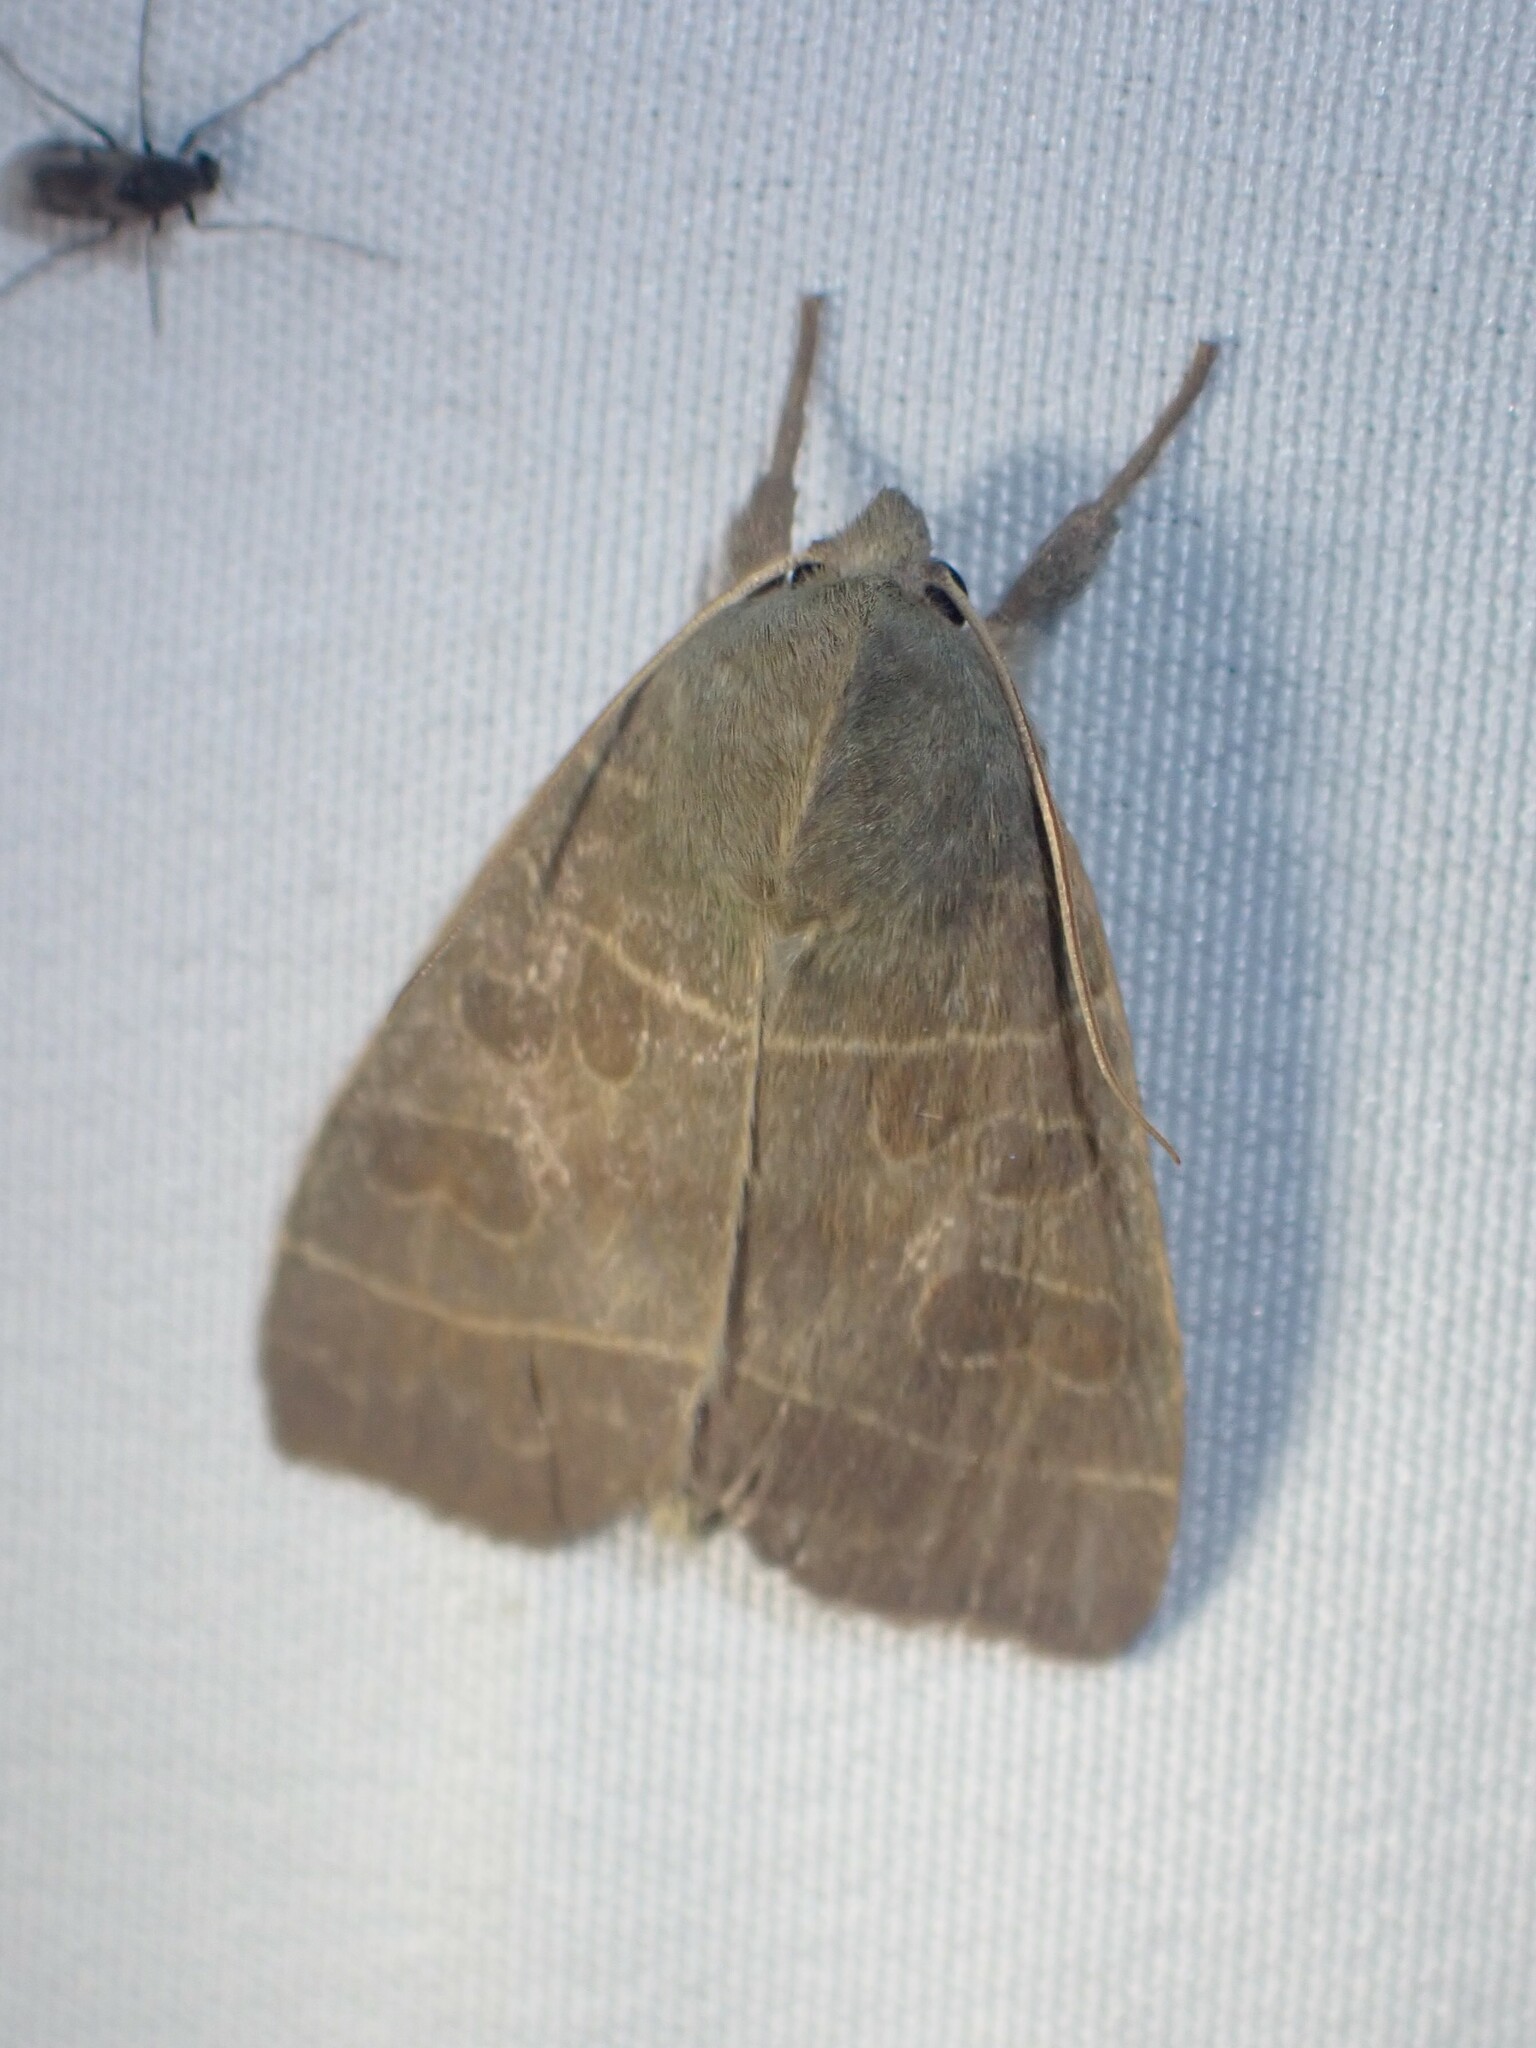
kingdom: Animalia
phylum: Arthropoda
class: Insecta
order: Lepidoptera
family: Noctuidae
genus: Ipimorpha
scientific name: Ipimorpha pleonectusa
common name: Even-lined sallow
